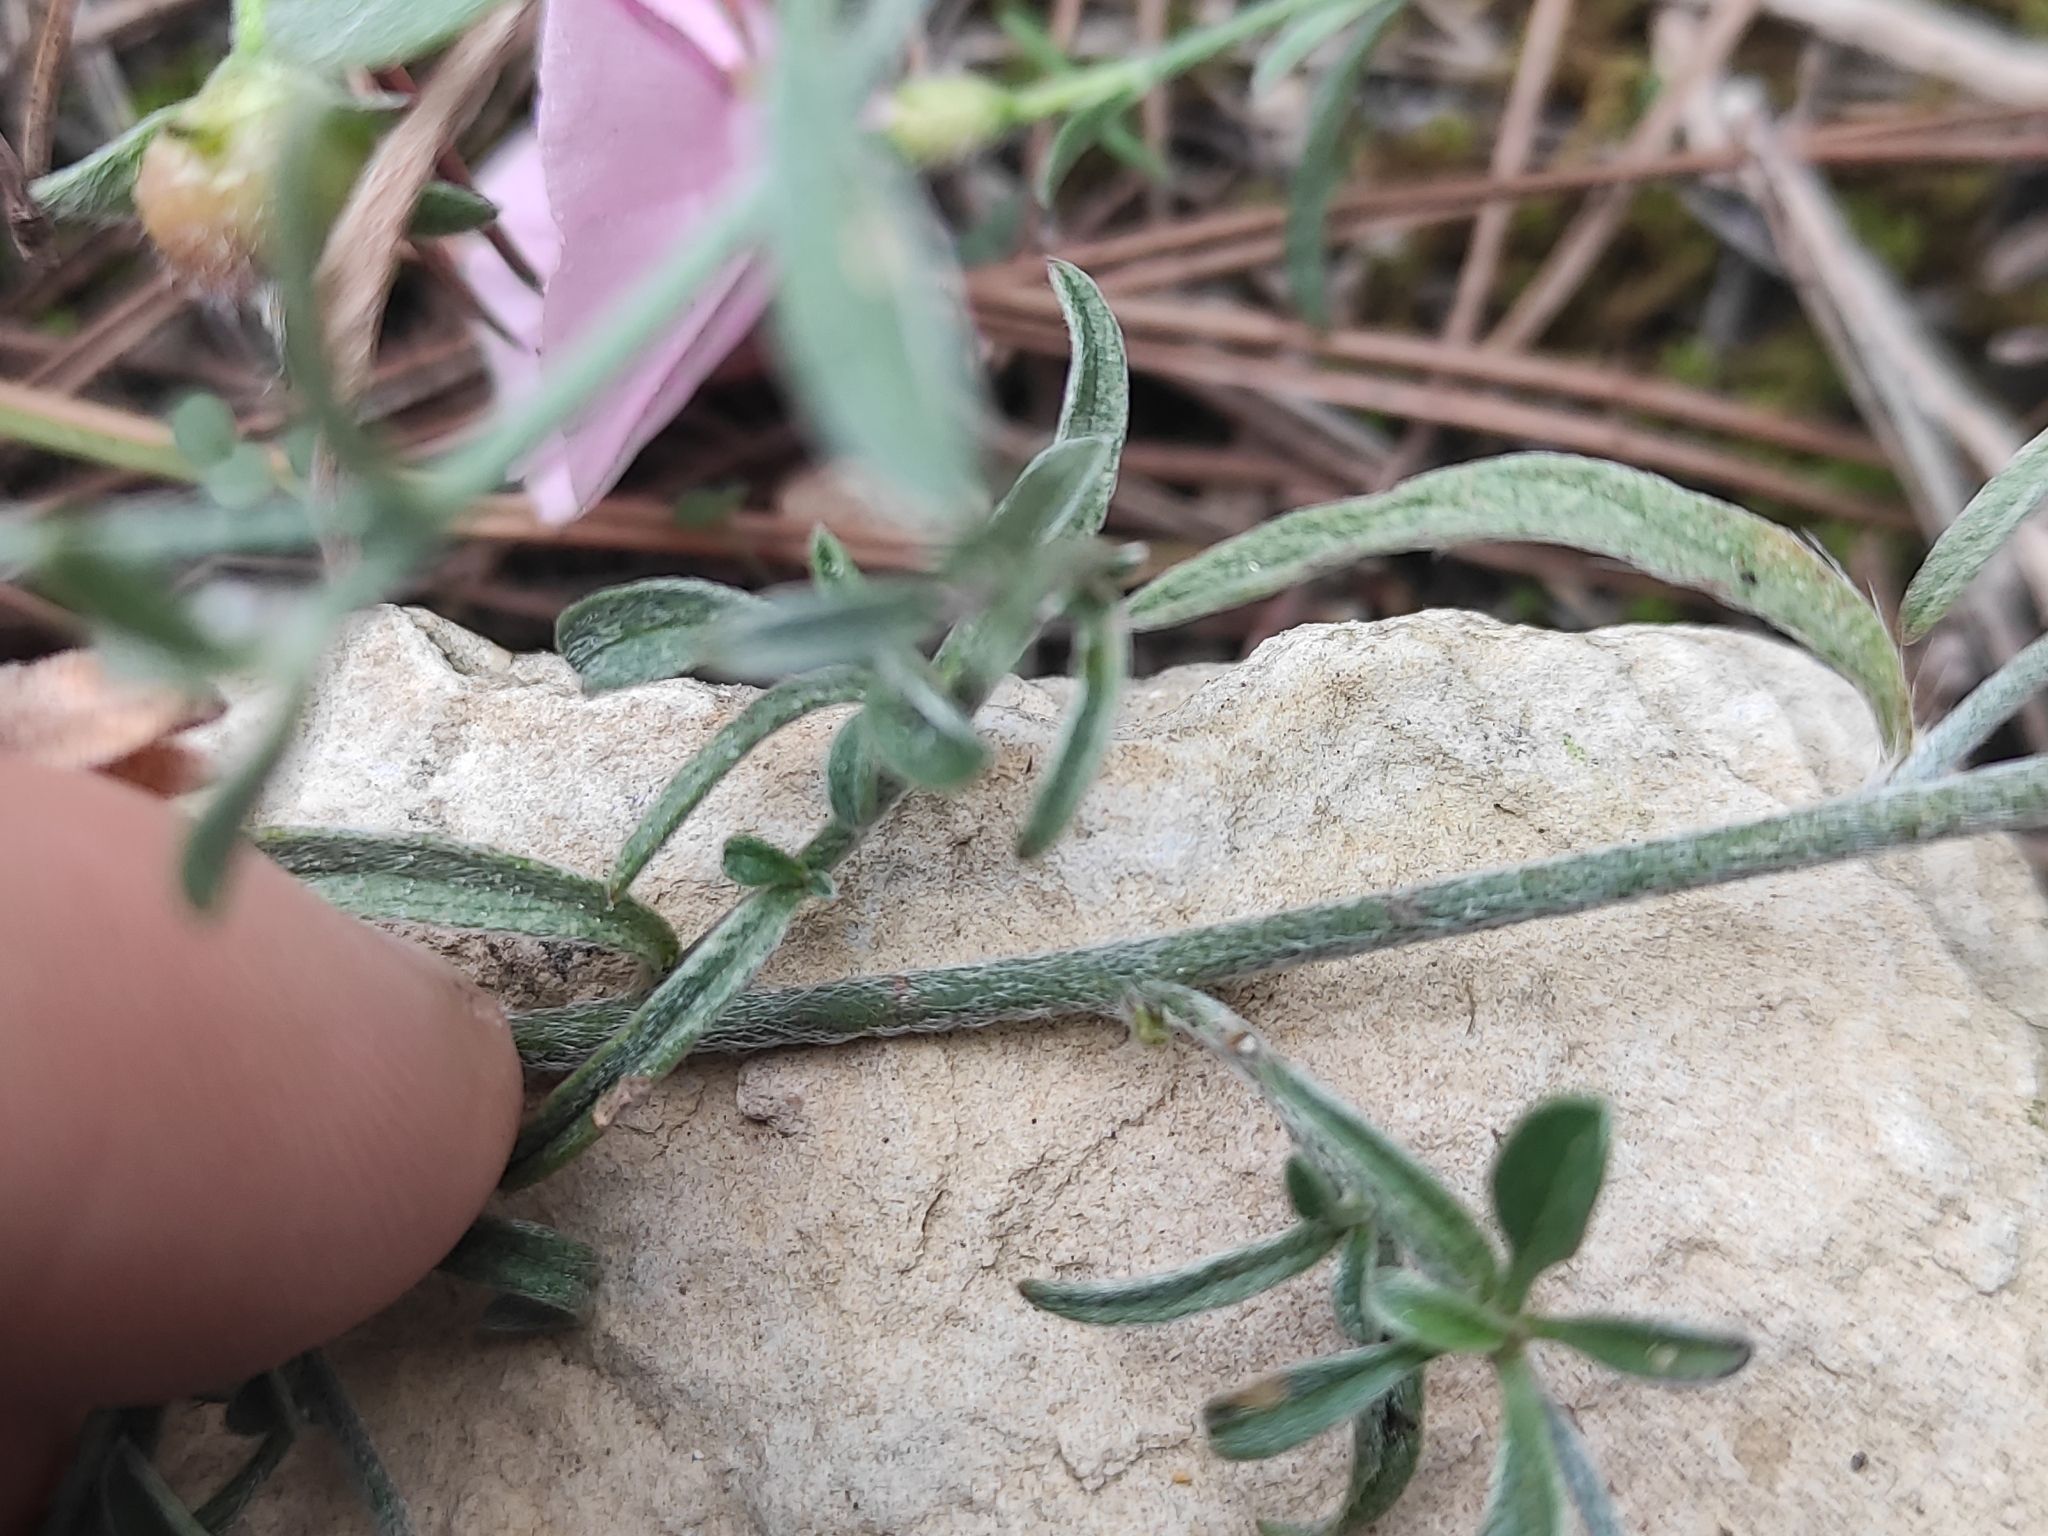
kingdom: Plantae
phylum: Tracheophyta
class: Magnoliopsida
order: Solanales
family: Convolvulaceae
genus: Convolvulus
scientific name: Convolvulus cantabrica
